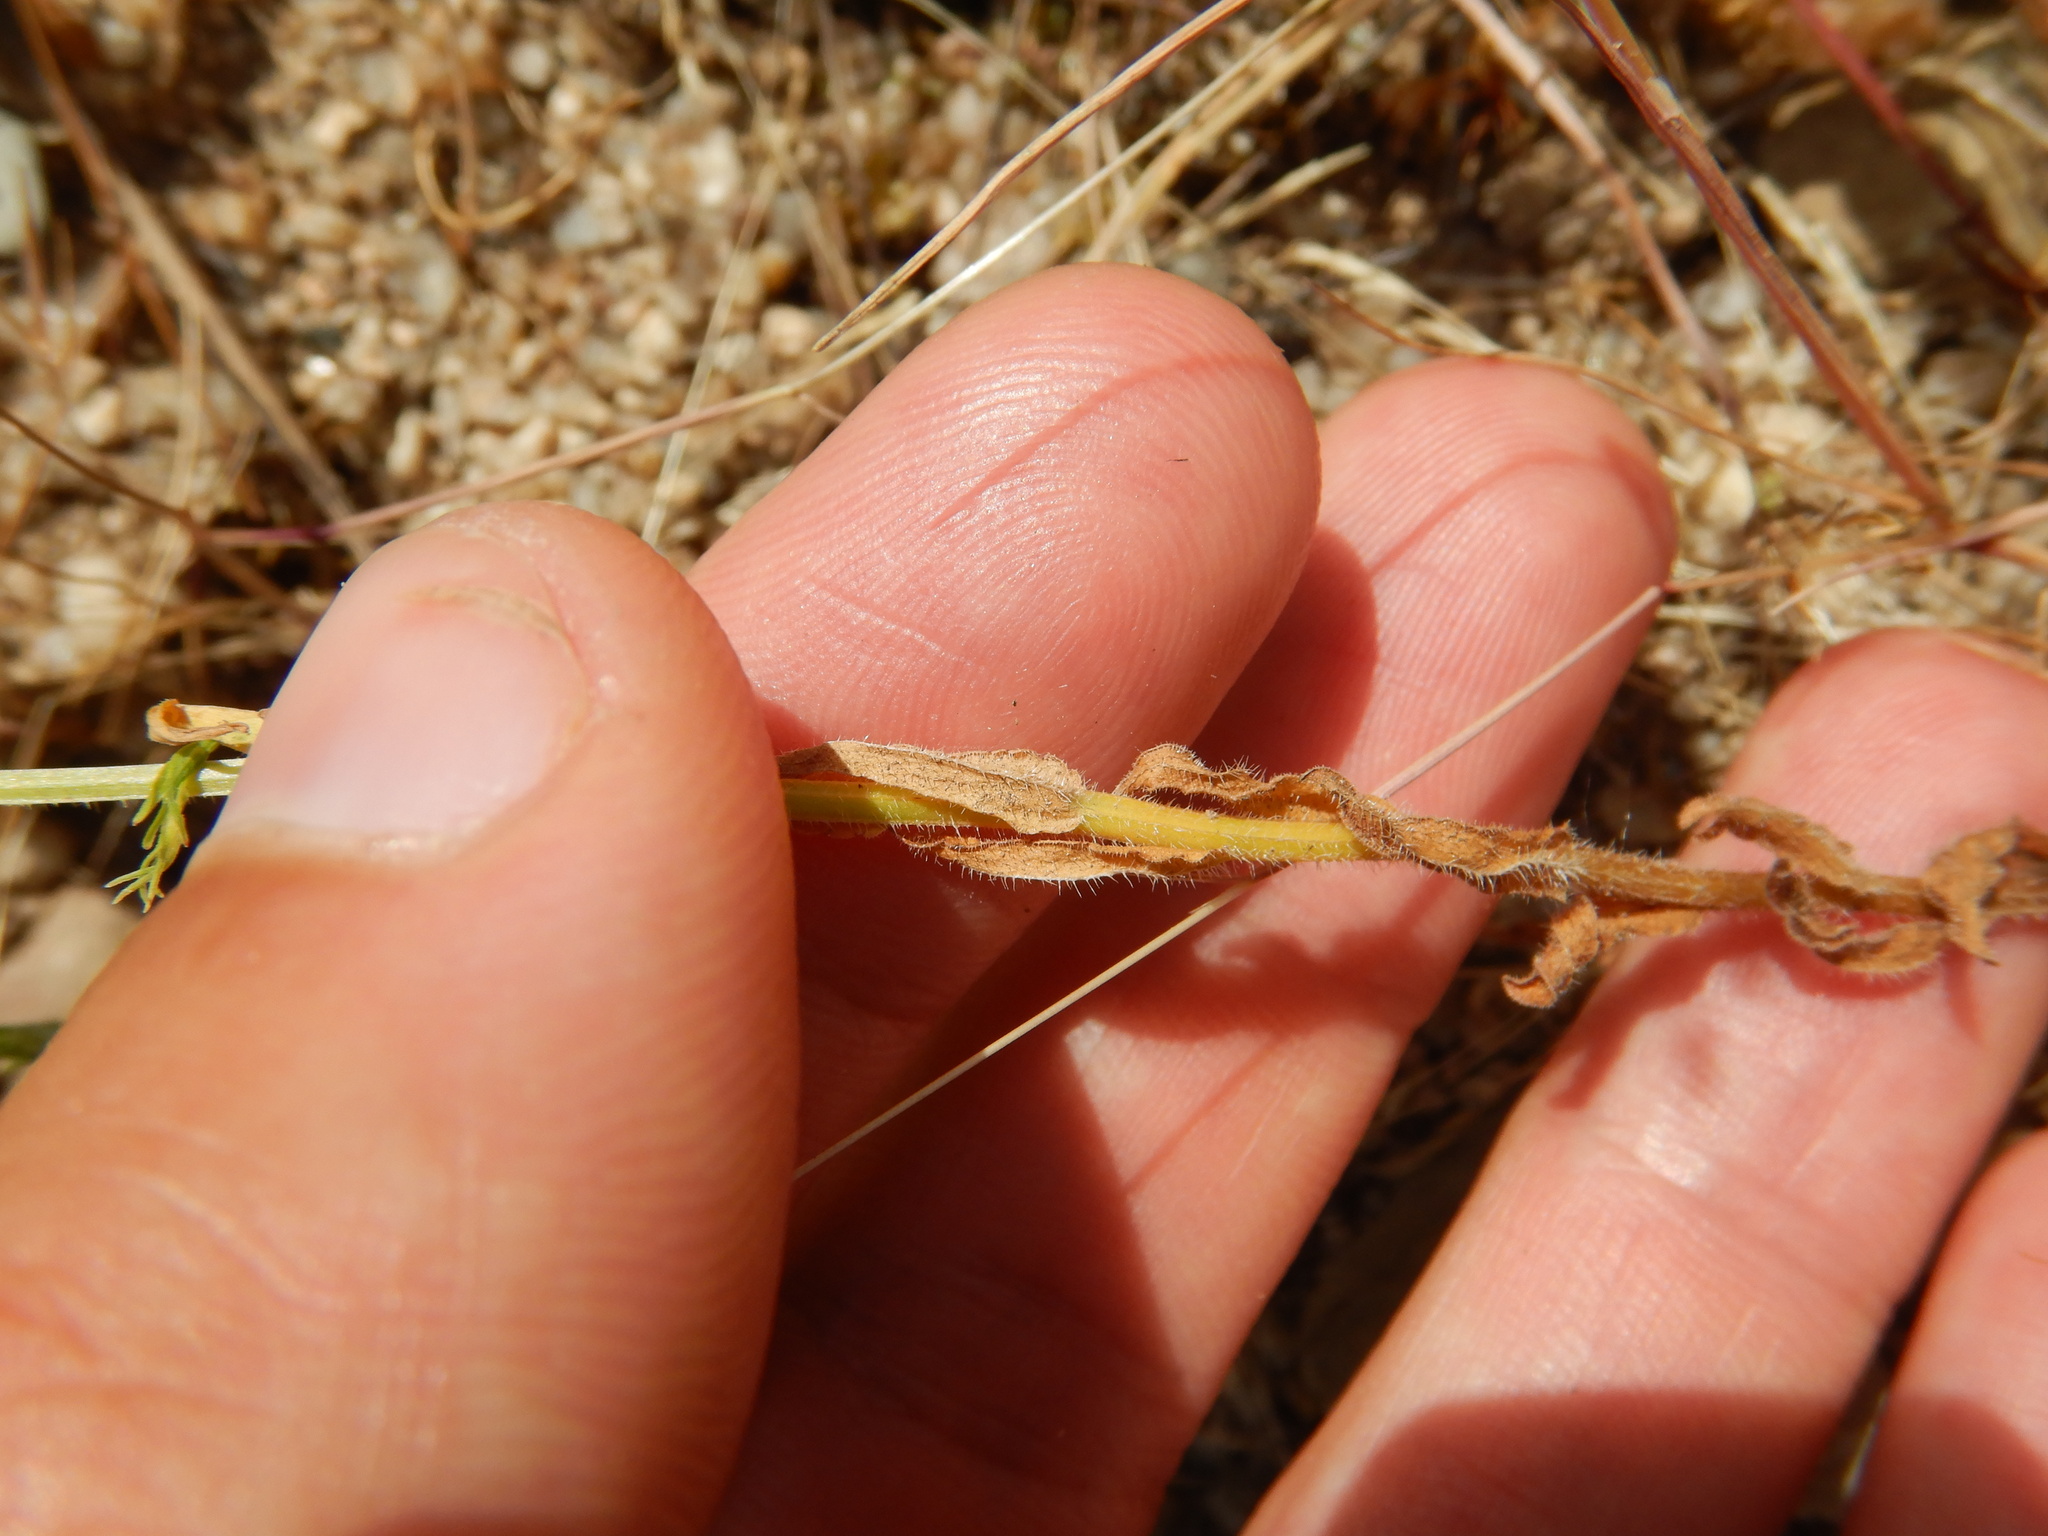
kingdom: Plantae
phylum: Tracheophyta
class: Magnoliopsida
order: Asterales
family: Campanulaceae
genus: Campanula
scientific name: Campanula lusitanica
